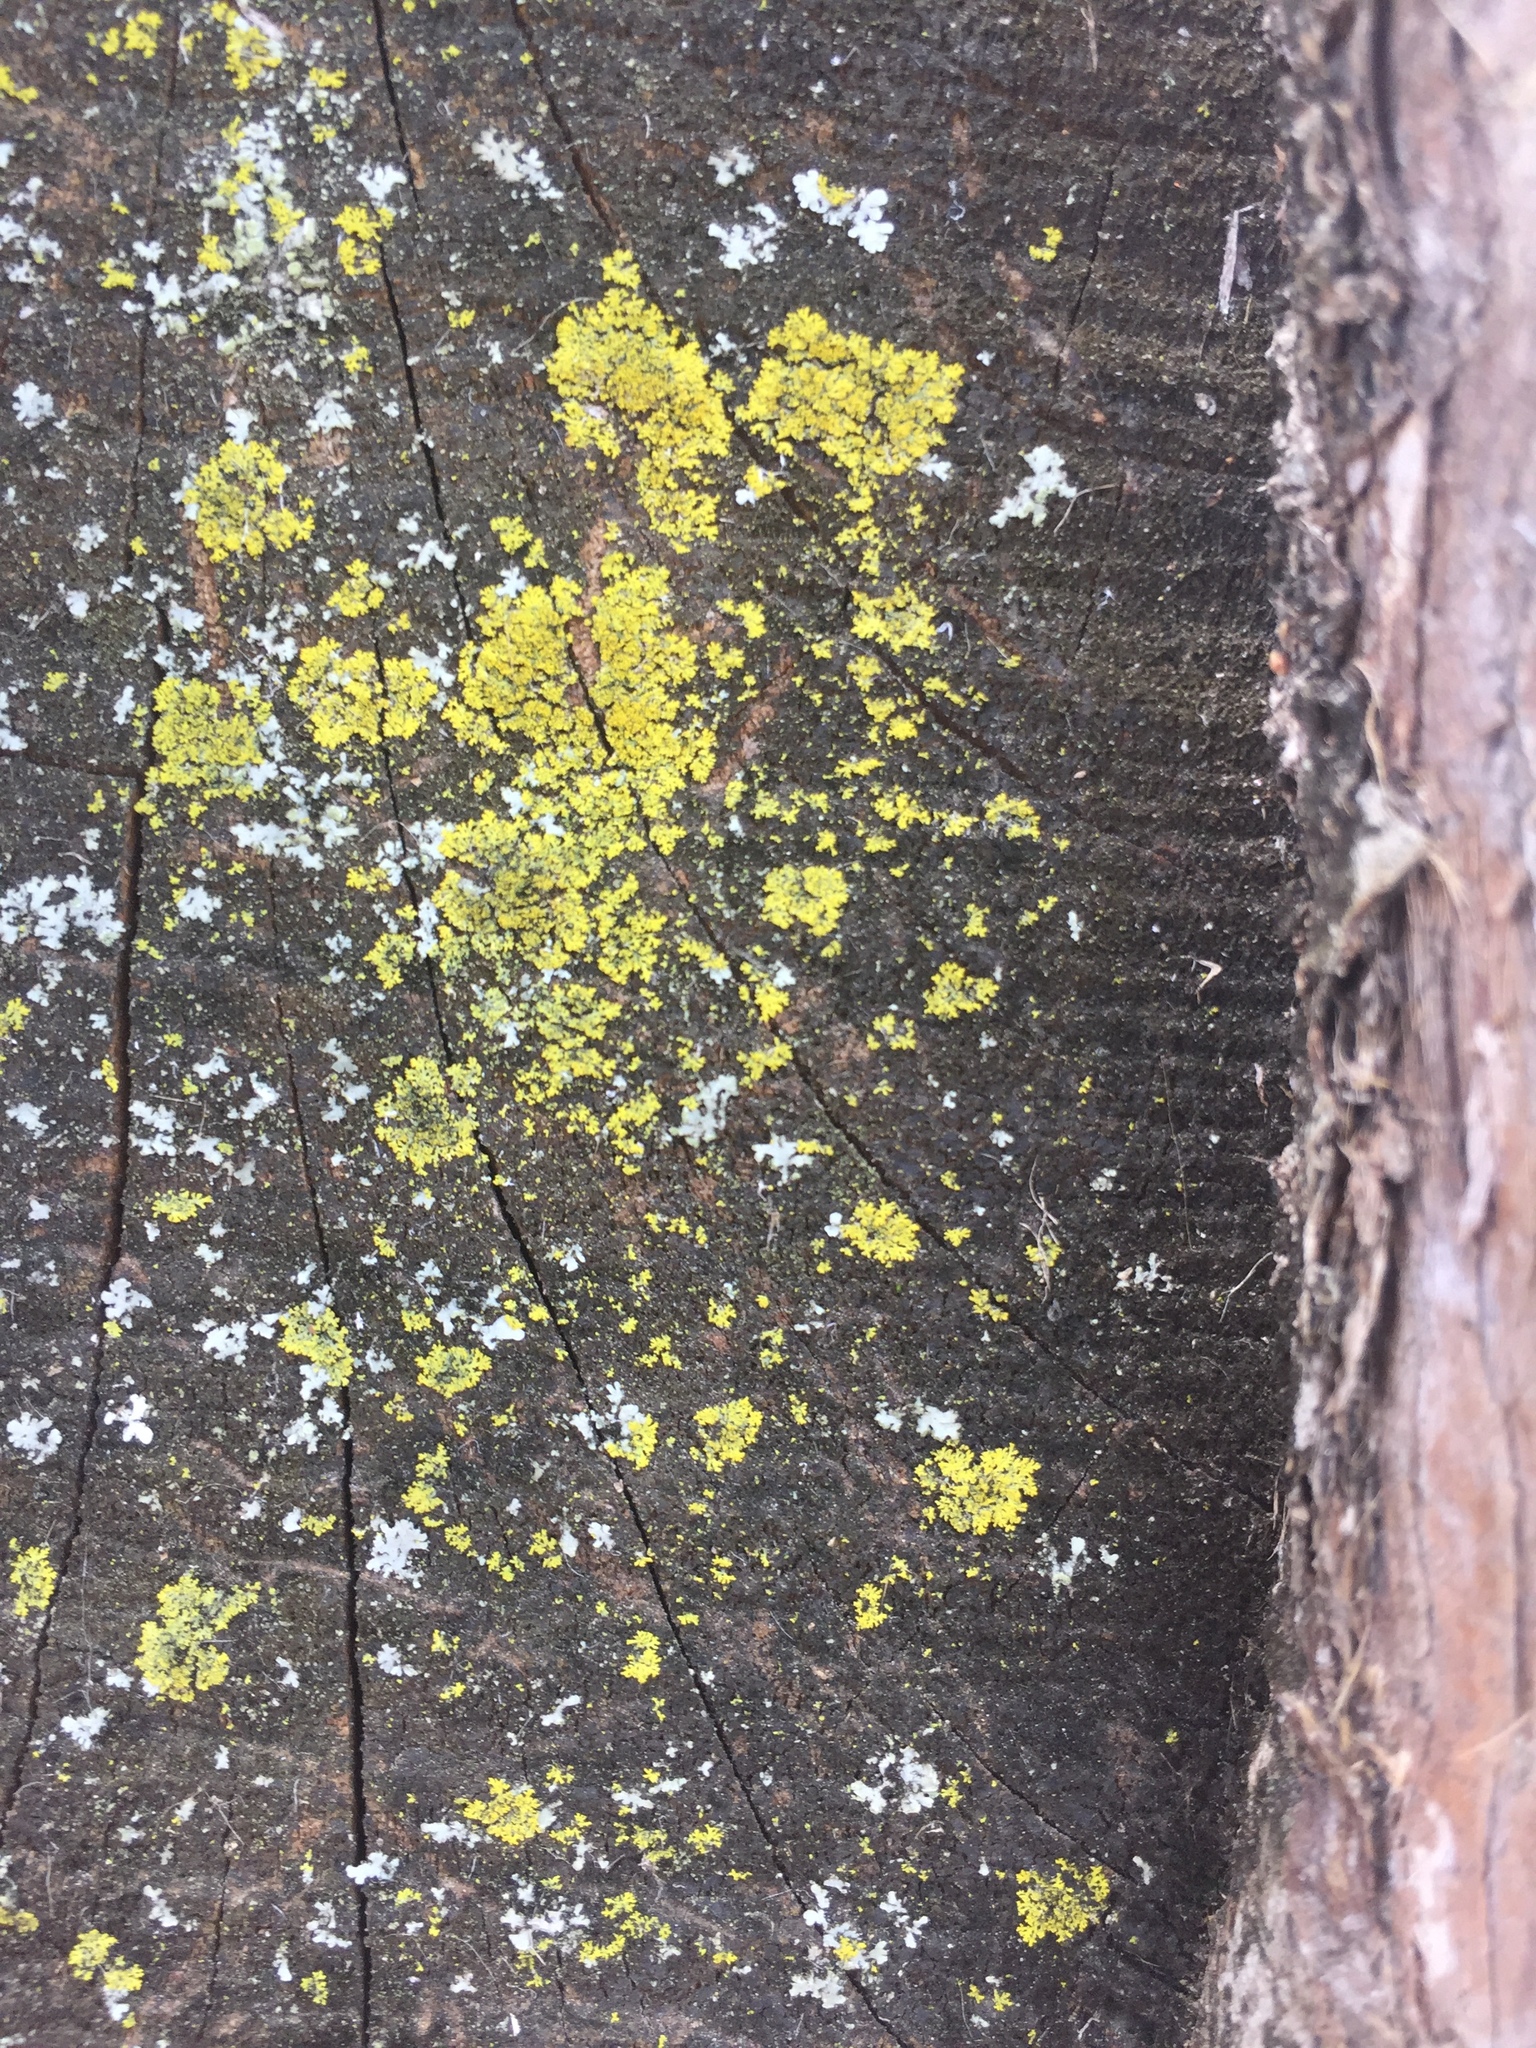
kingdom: Fungi
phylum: Ascomycota
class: Candelariomycetes
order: Candelariales
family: Candelariaceae
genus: Candelaria
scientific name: Candelaria concolor
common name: Candleflame lichen
